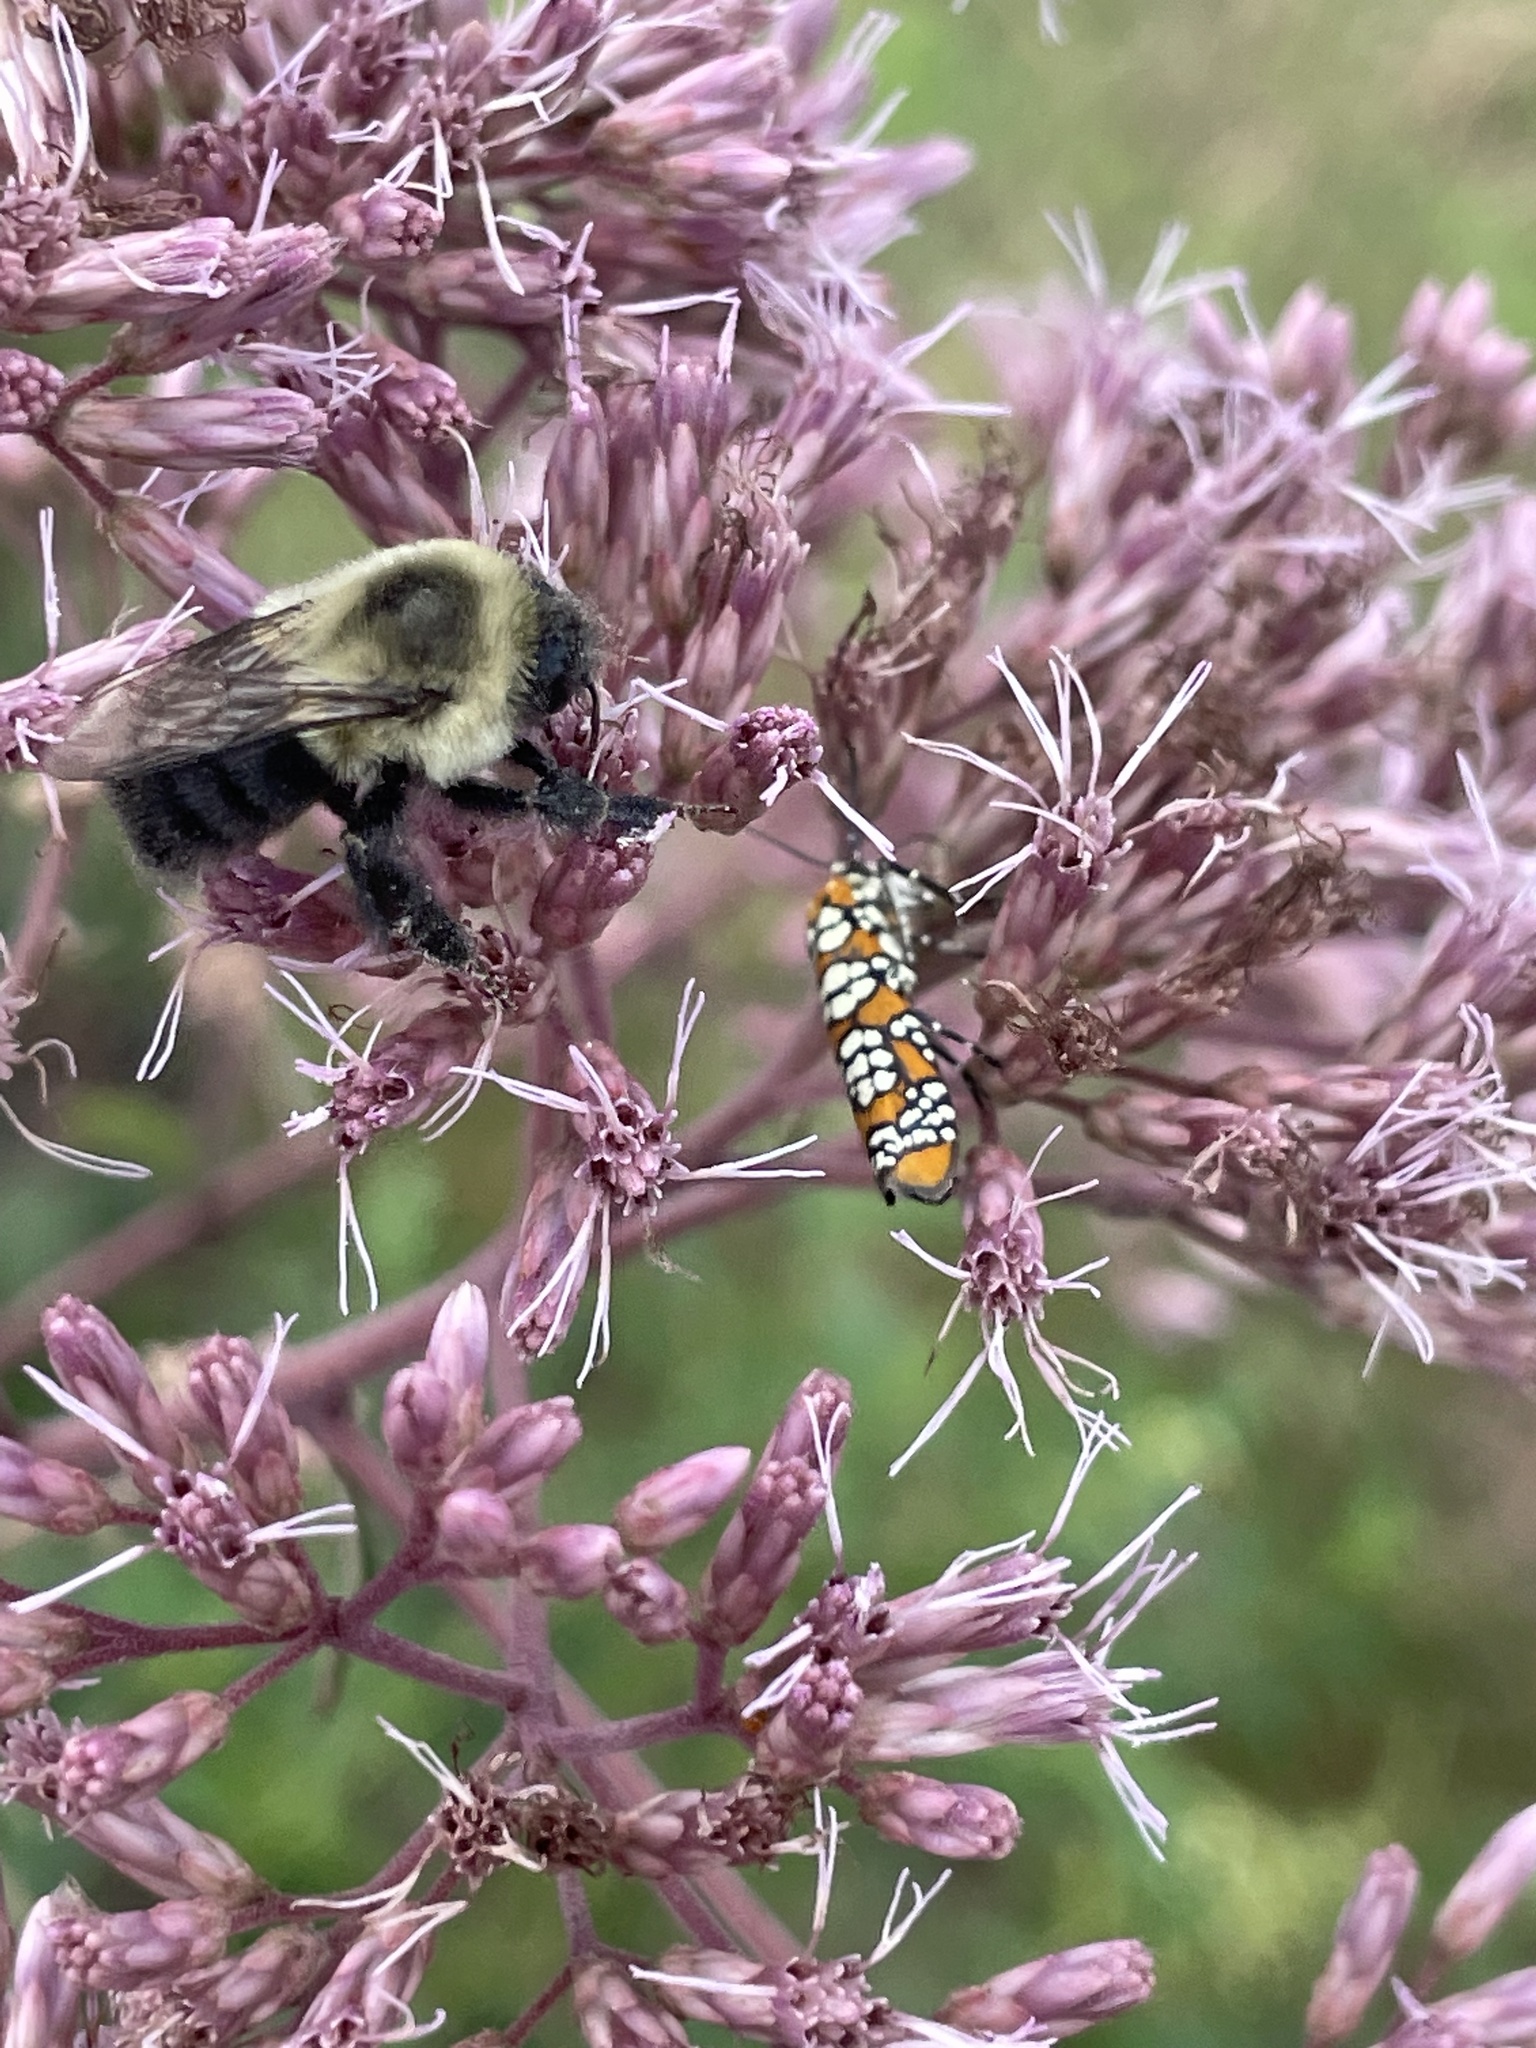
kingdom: Animalia
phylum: Arthropoda
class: Insecta
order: Hymenoptera
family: Apidae
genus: Bombus
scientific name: Bombus impatiens
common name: Common eastern bumble bee
